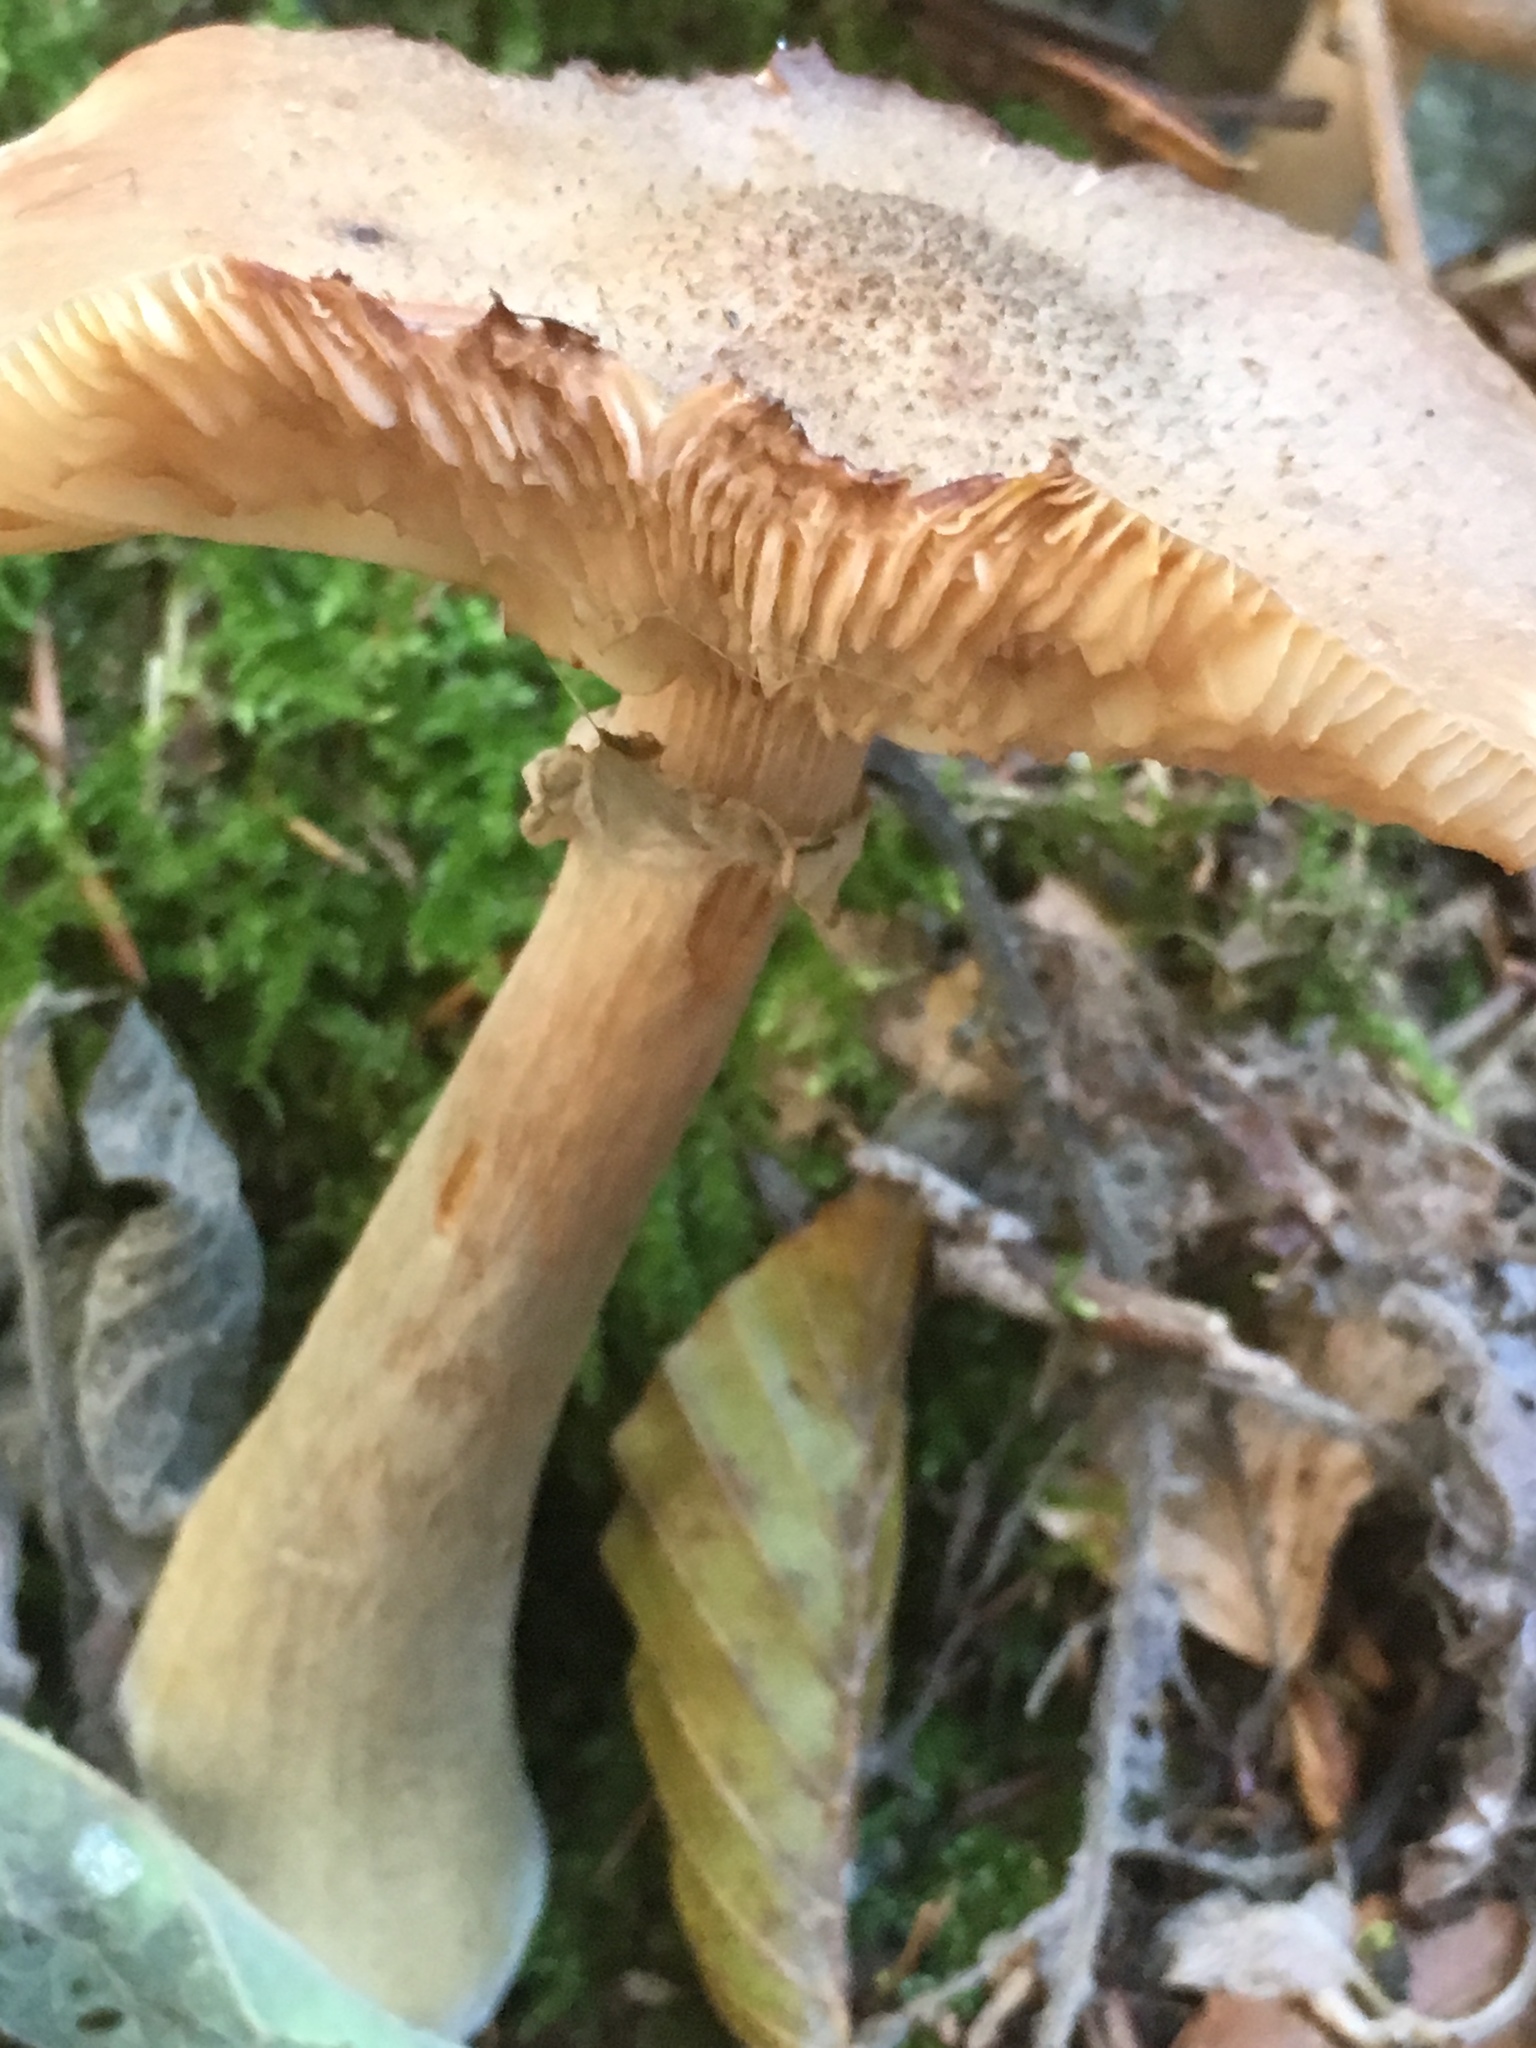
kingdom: Fungi
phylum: Basidiomycota
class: Agaricomycetes
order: Agaricales
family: Physalacriaceae
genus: Armillaria
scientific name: Armillaria mellea
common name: Honey fungus
